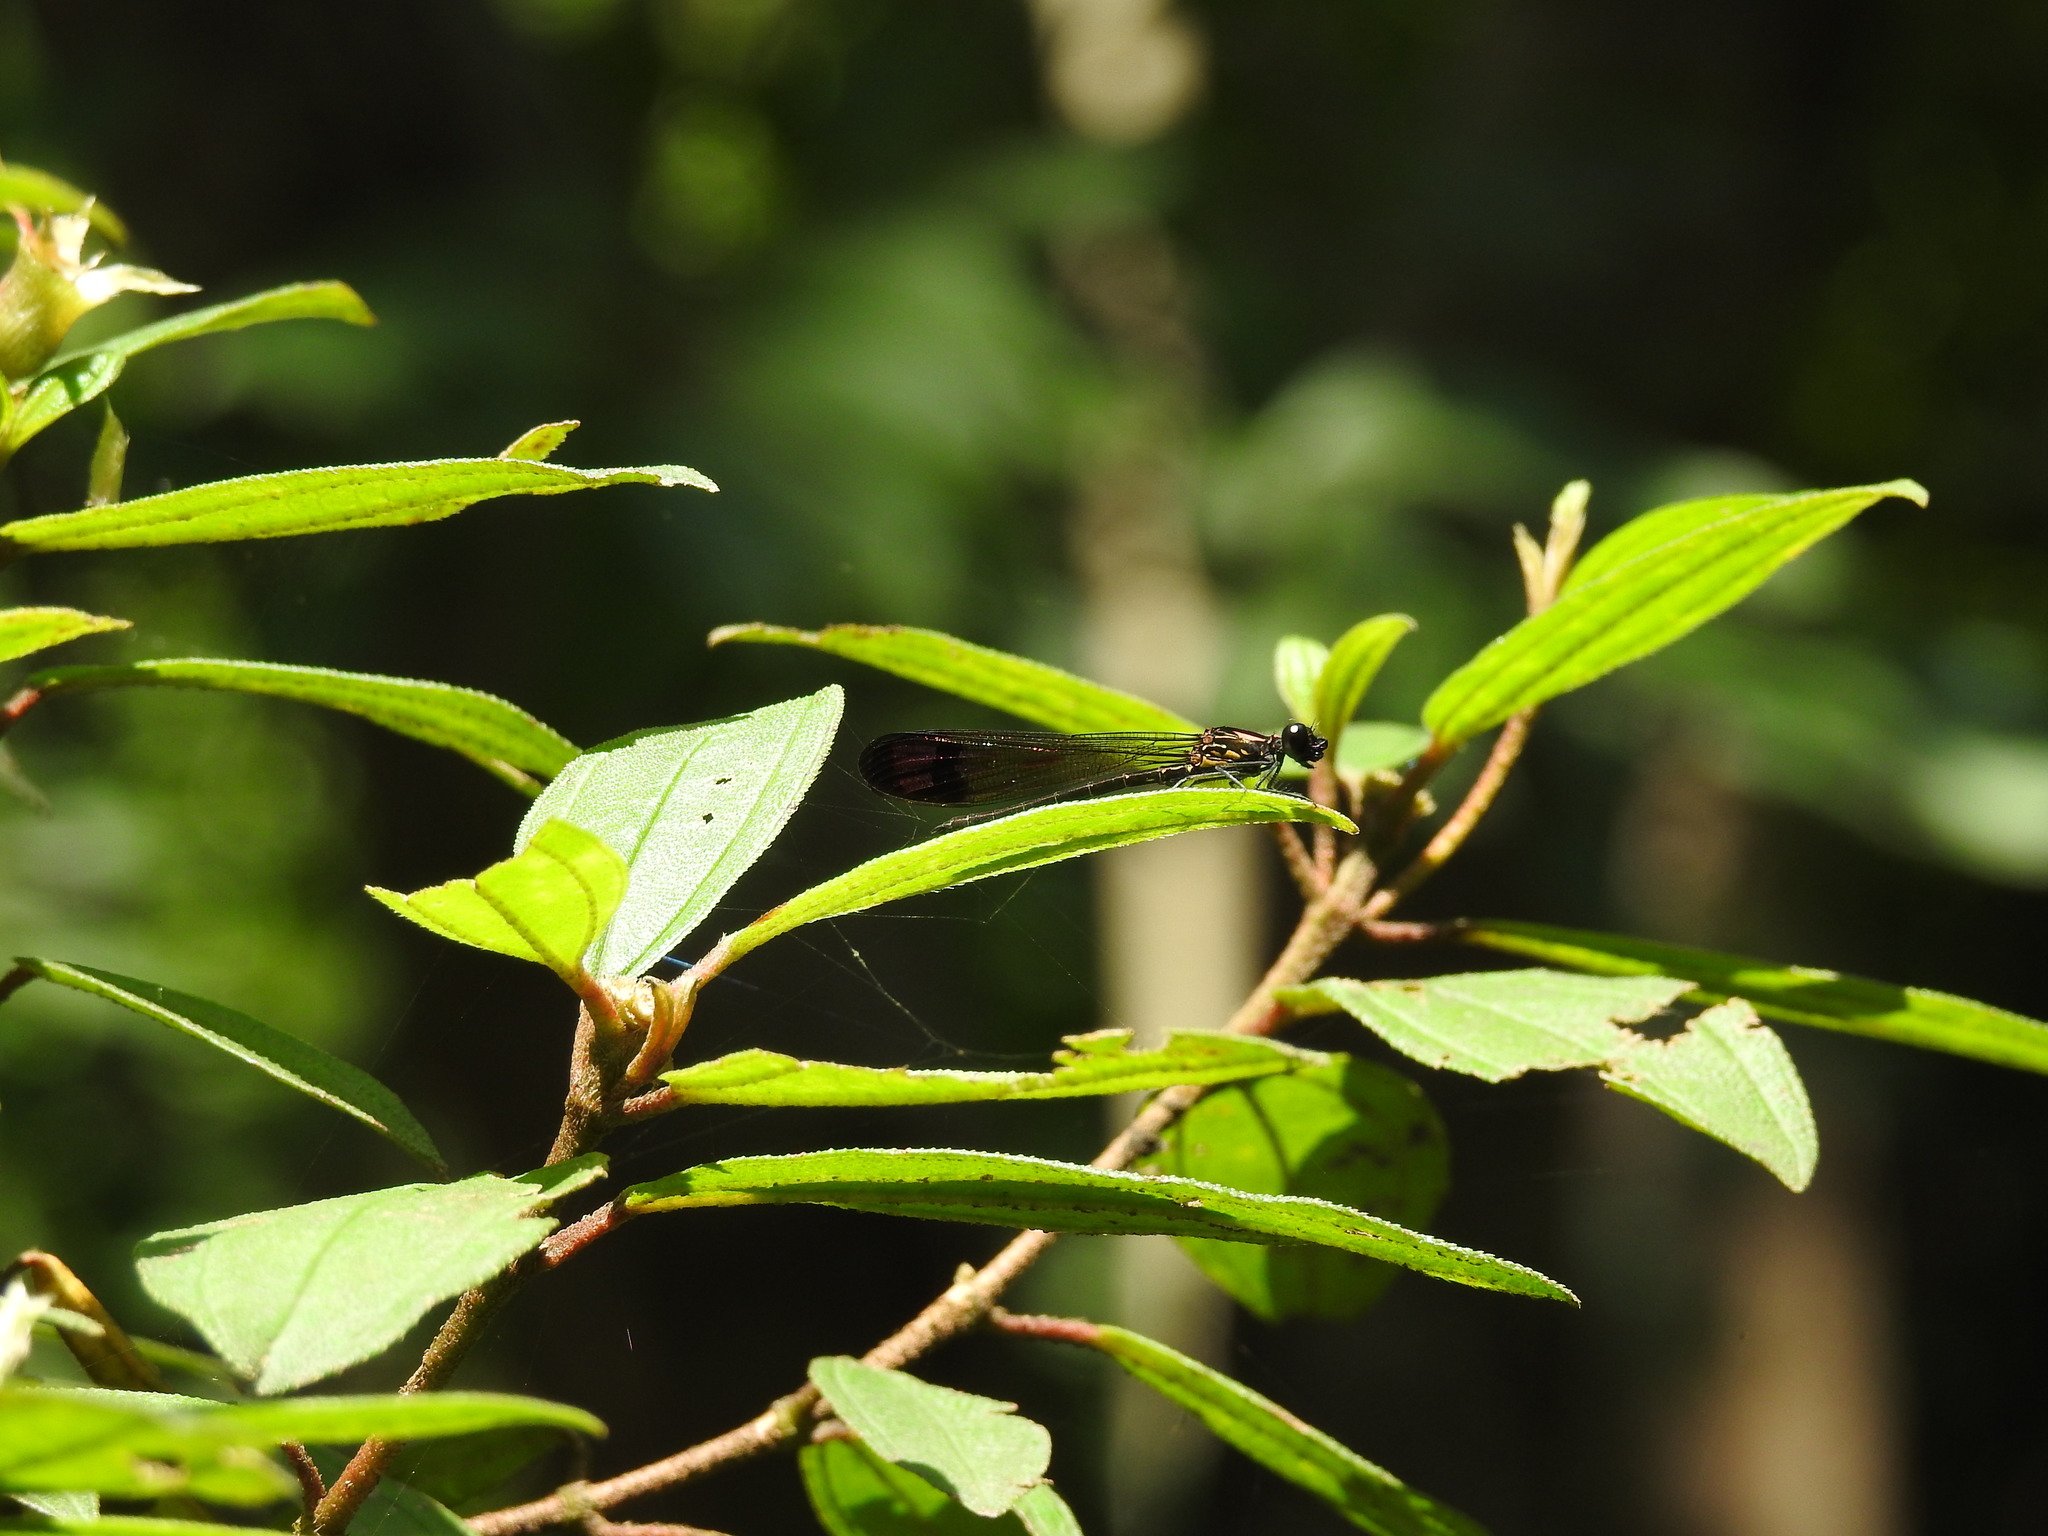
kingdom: Animalia
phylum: Arthropoda
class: Insecta
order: Odonata
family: Chlorocyphidae
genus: Heliocypha
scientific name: Heliocypha bisignata
